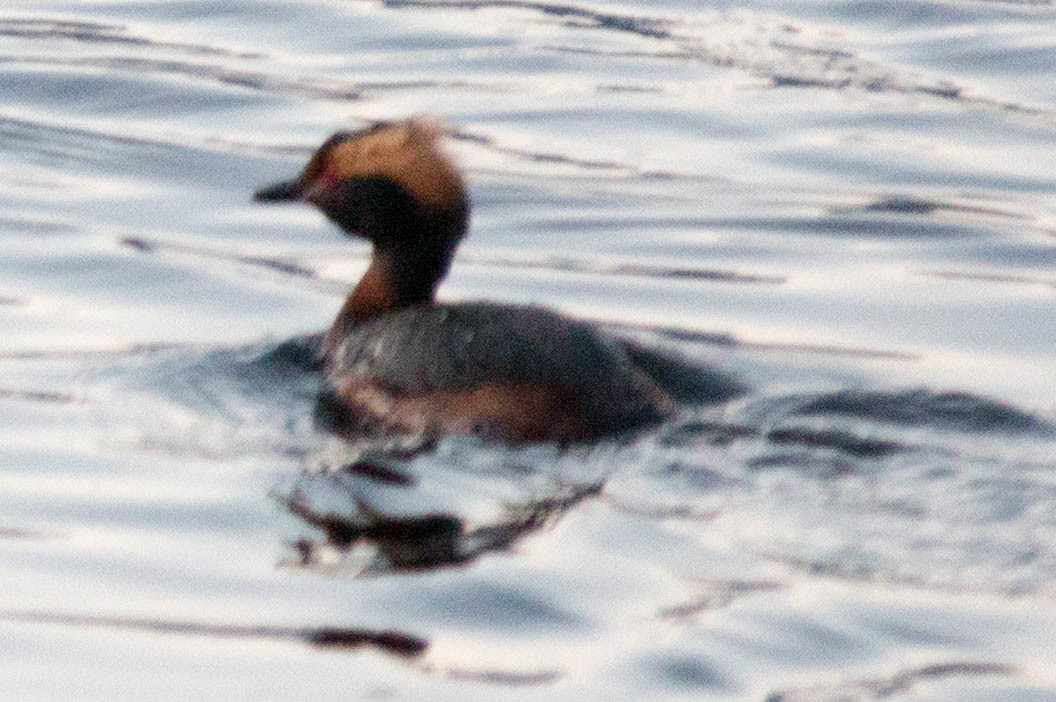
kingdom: Animalia
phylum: Chordata
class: Aves
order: Podicipediformes
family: Podicipedidae
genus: Podiceps
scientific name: Podiceps auritus
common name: Horned grebe
